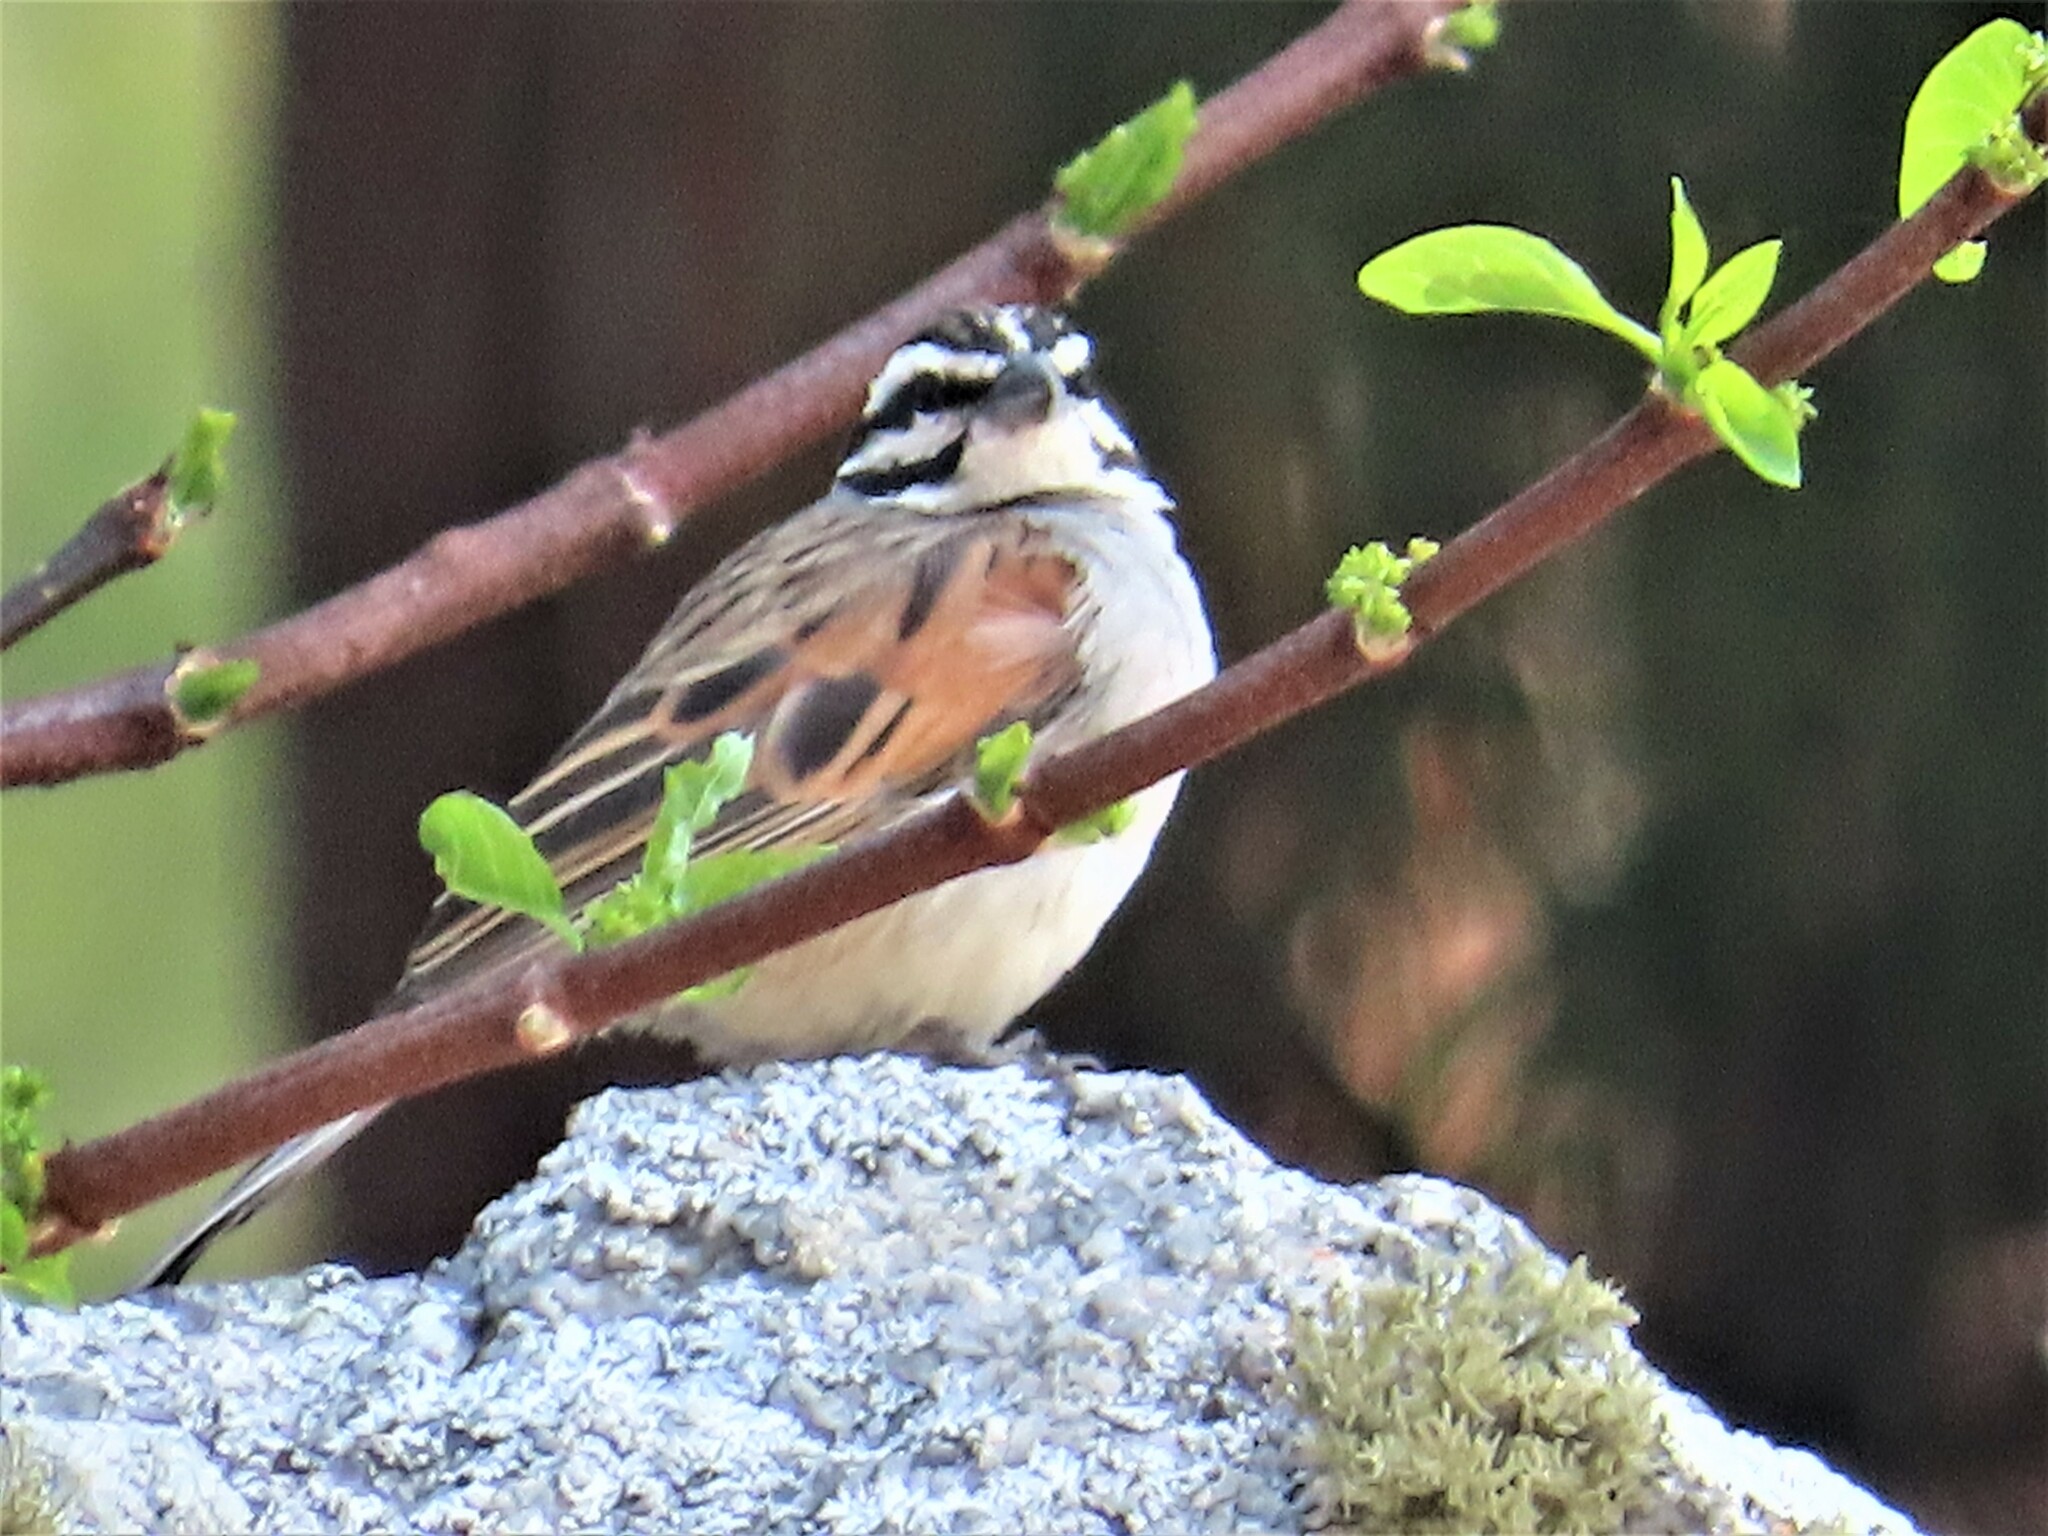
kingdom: Animalia
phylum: Chordata
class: Aves
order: Passeriformes
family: Emberizidae
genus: Emberiza
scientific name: Emberiza capensis
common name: Cape bunting
